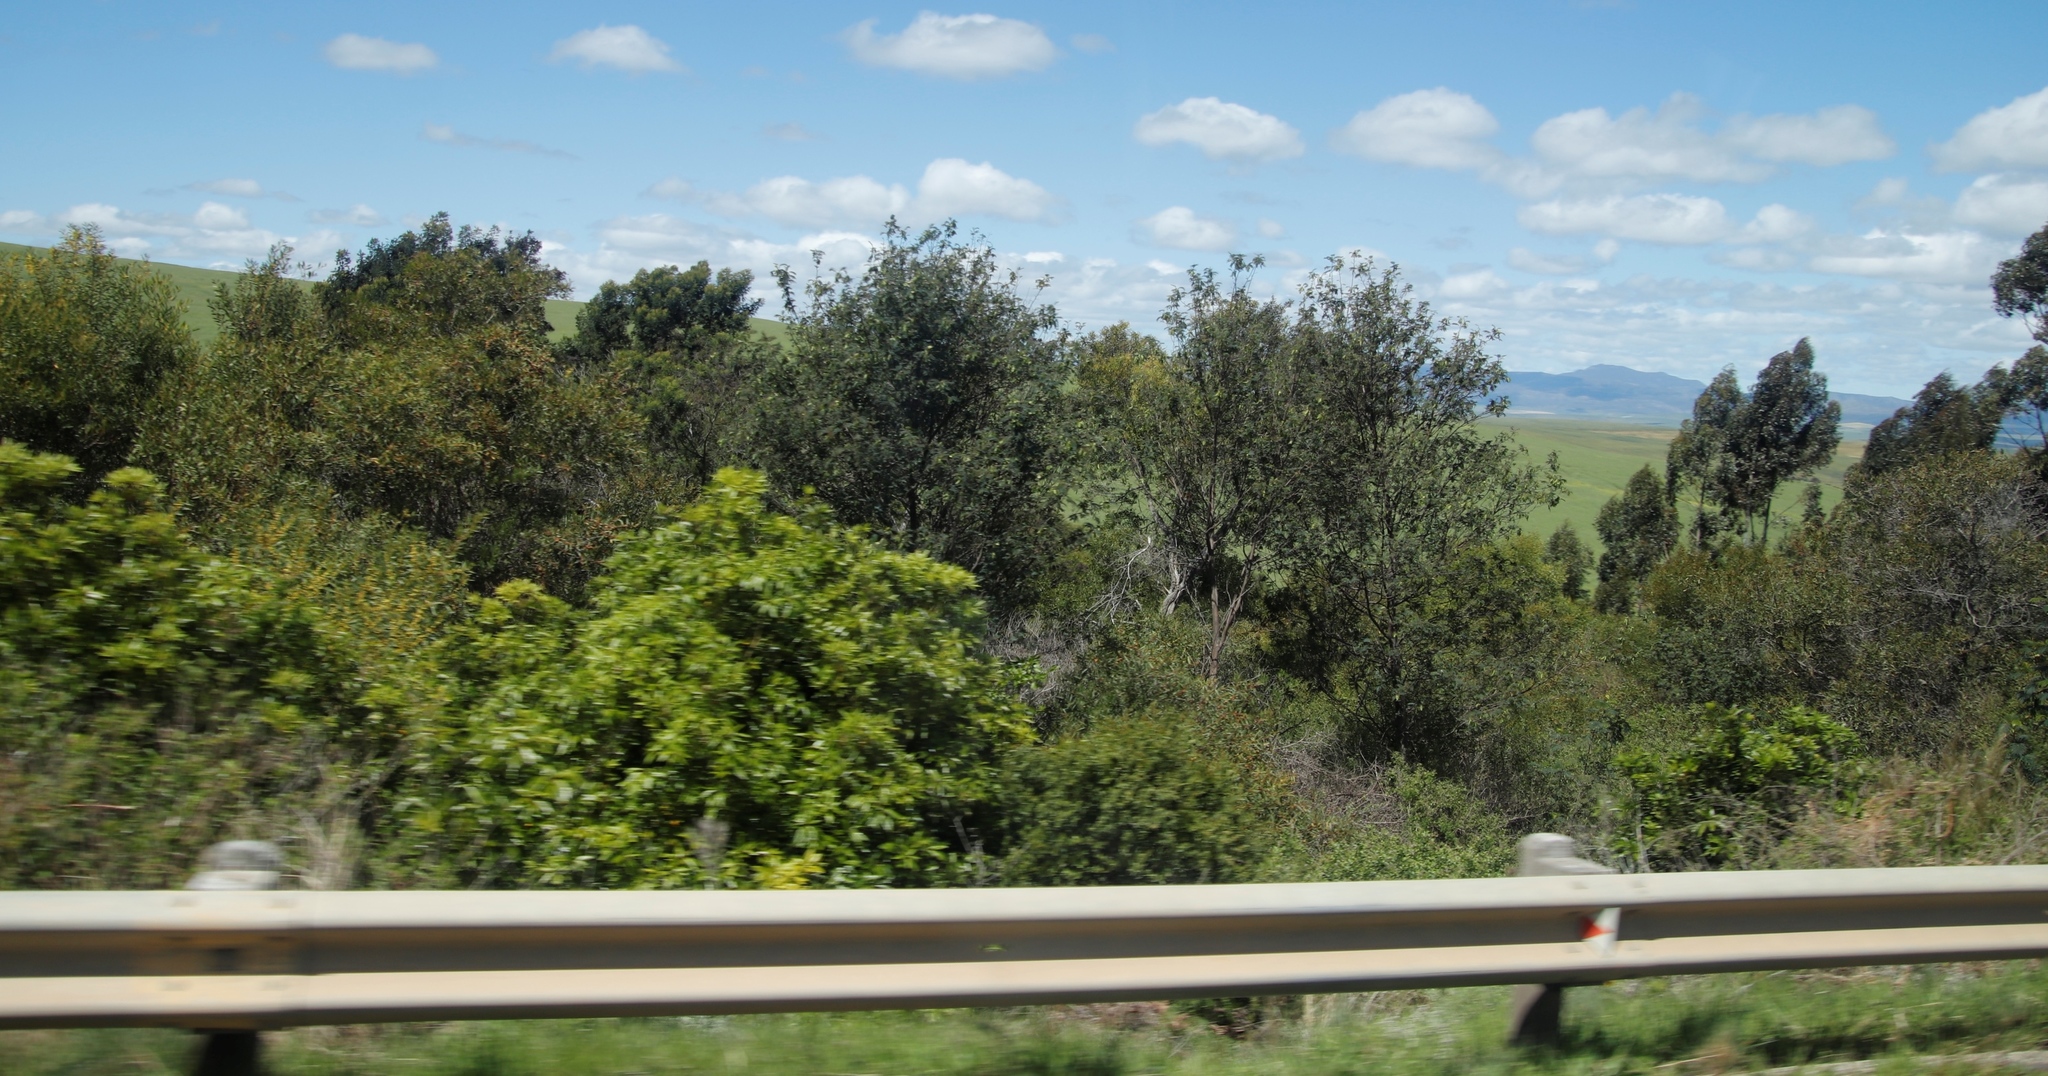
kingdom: Plantae
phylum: Tracheophyta
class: Magnoliopsida
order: Fabales
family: Fabaceae
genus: Paraserianthes
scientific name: Paraserianthes lophantha
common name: Plume albizia
